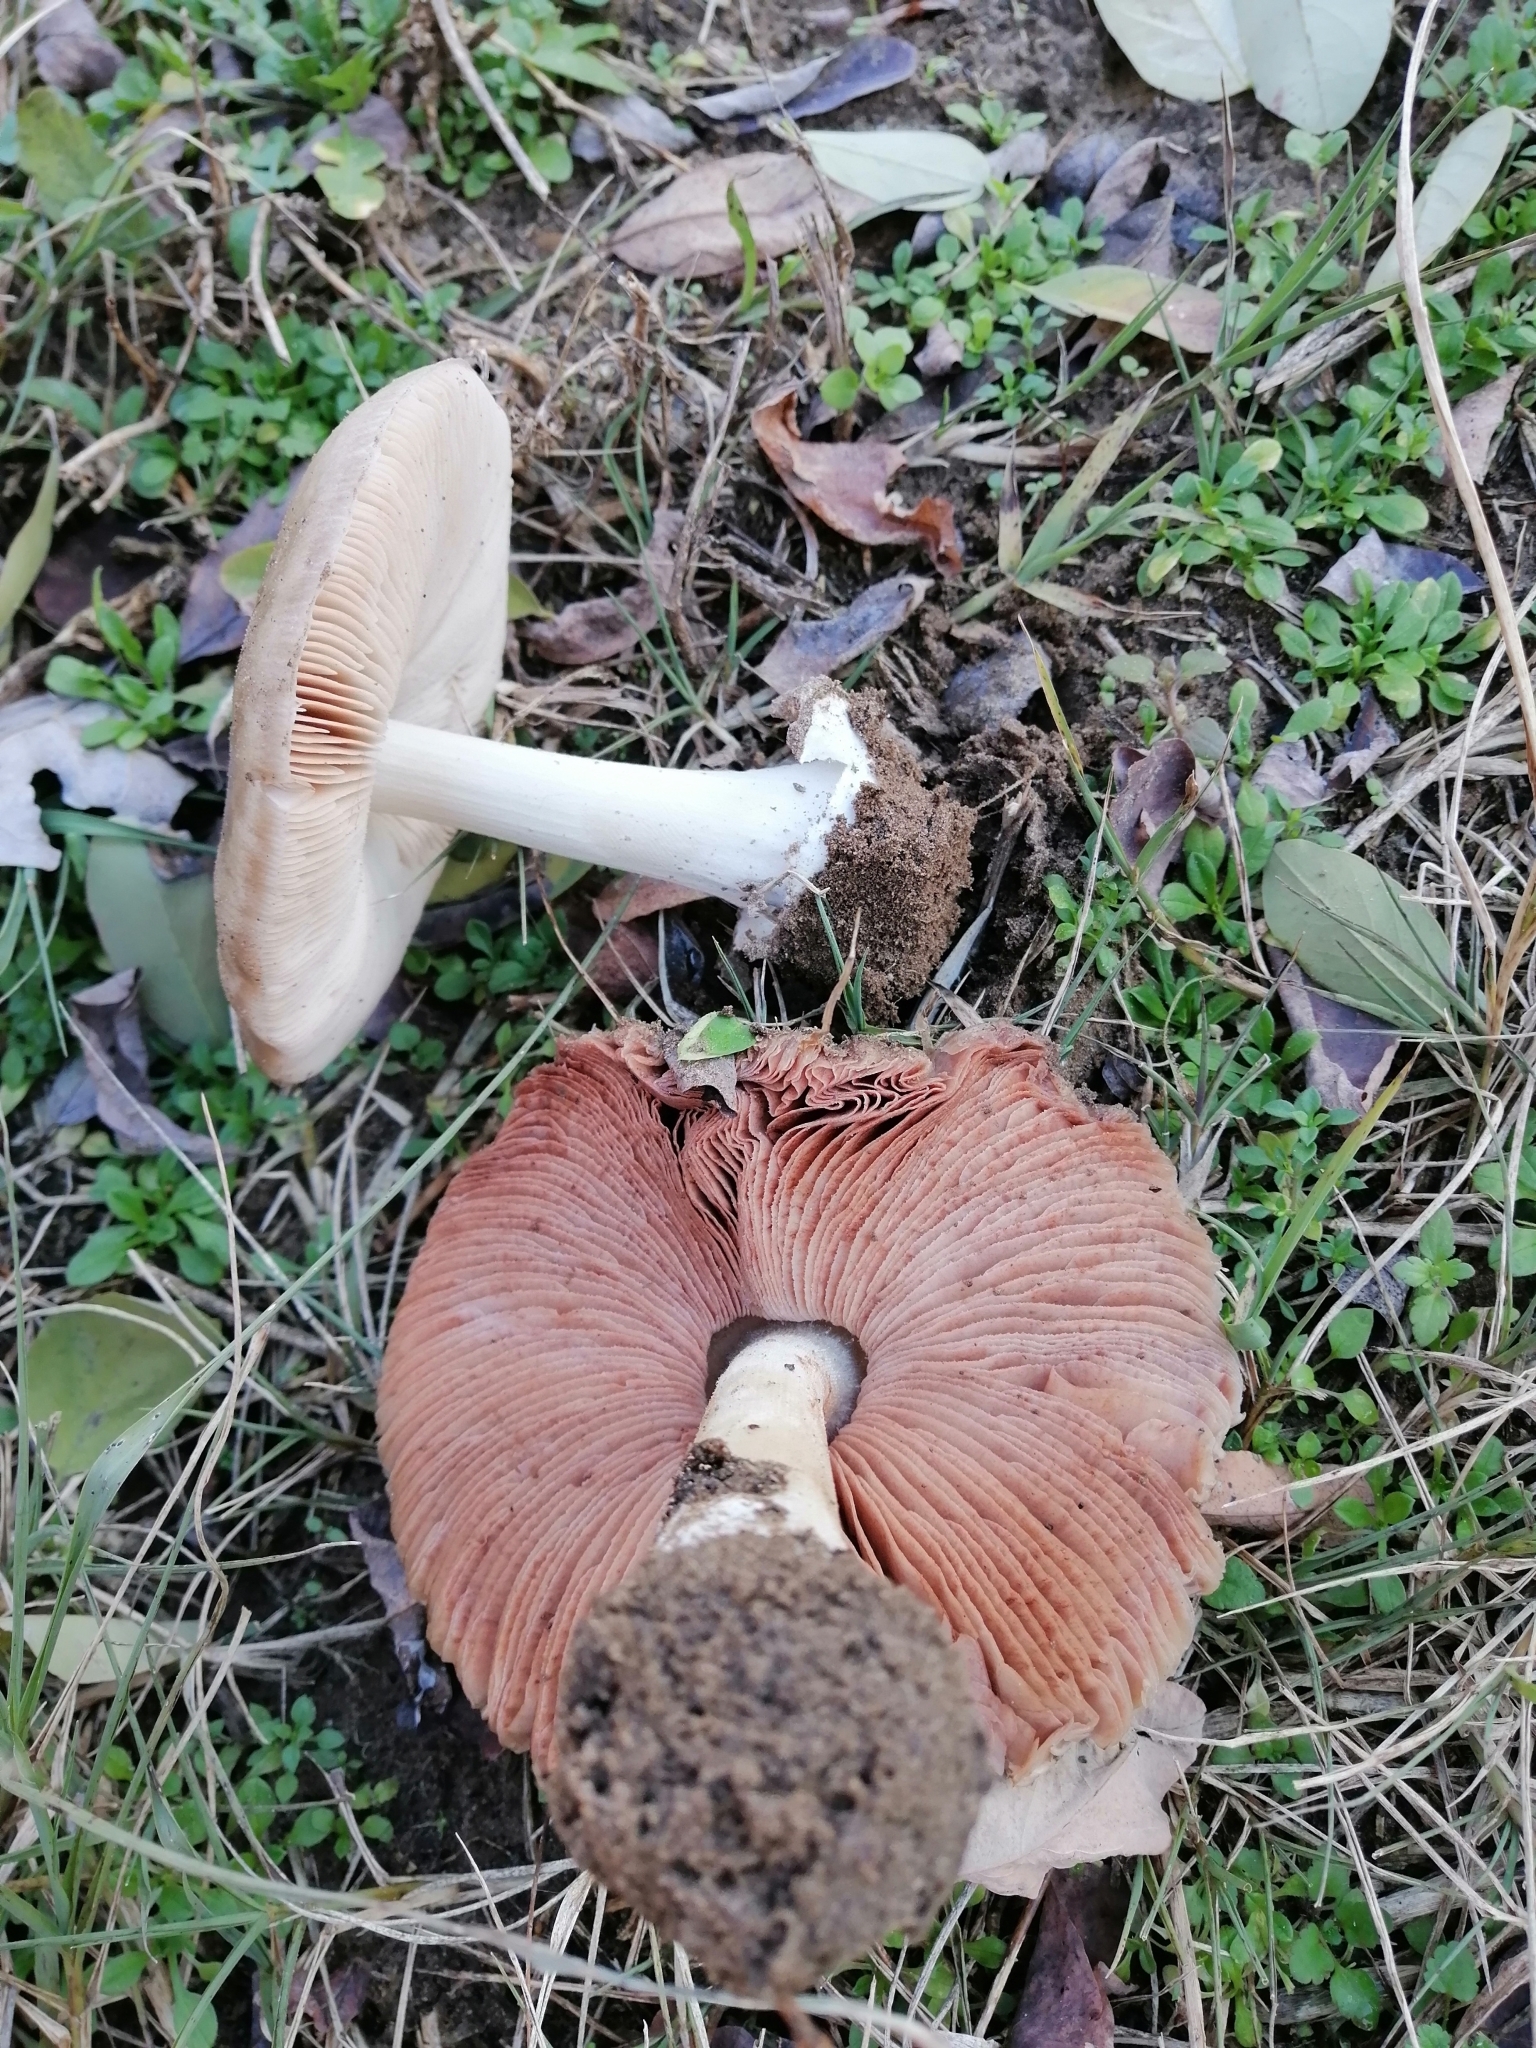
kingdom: Fungi
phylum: Basidiomycota
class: Agaricomycetes
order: Agaricales
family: Pluteaceae
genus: Volvopluteus
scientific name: Volvopluteus gloiocephalus
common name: Stubble rosegill
